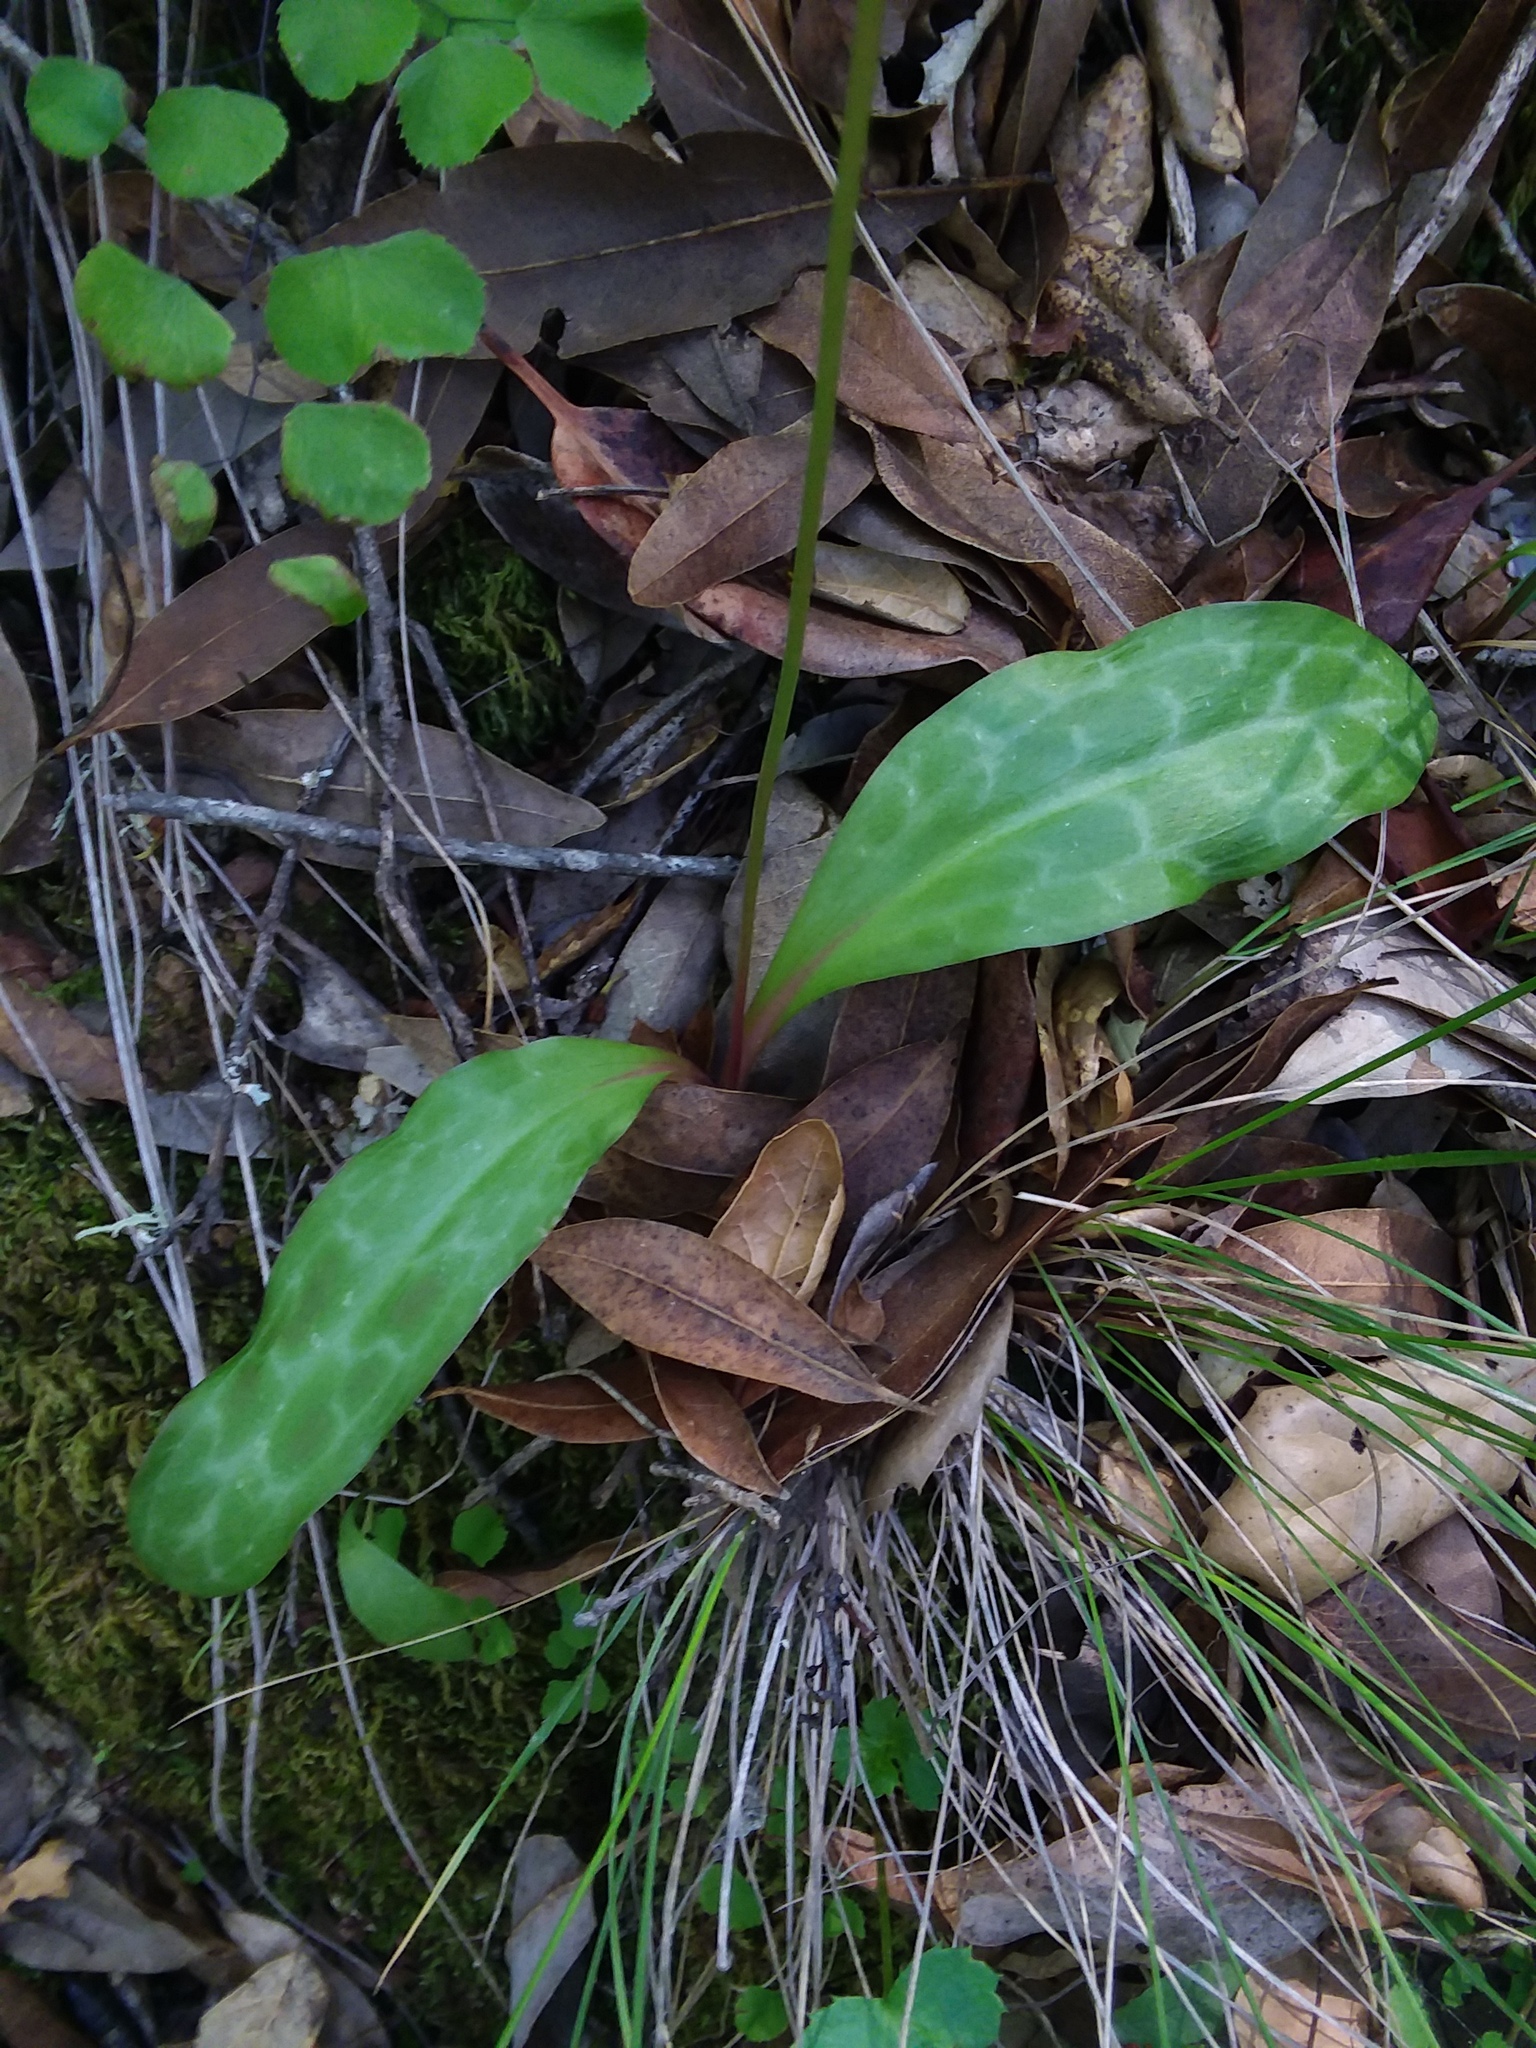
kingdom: Plantae
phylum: Tracheophyta
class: Liliopsida
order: Liliales
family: Liliaceae
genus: Erythronium
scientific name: Erythronium californicum
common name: Fawn-lily
